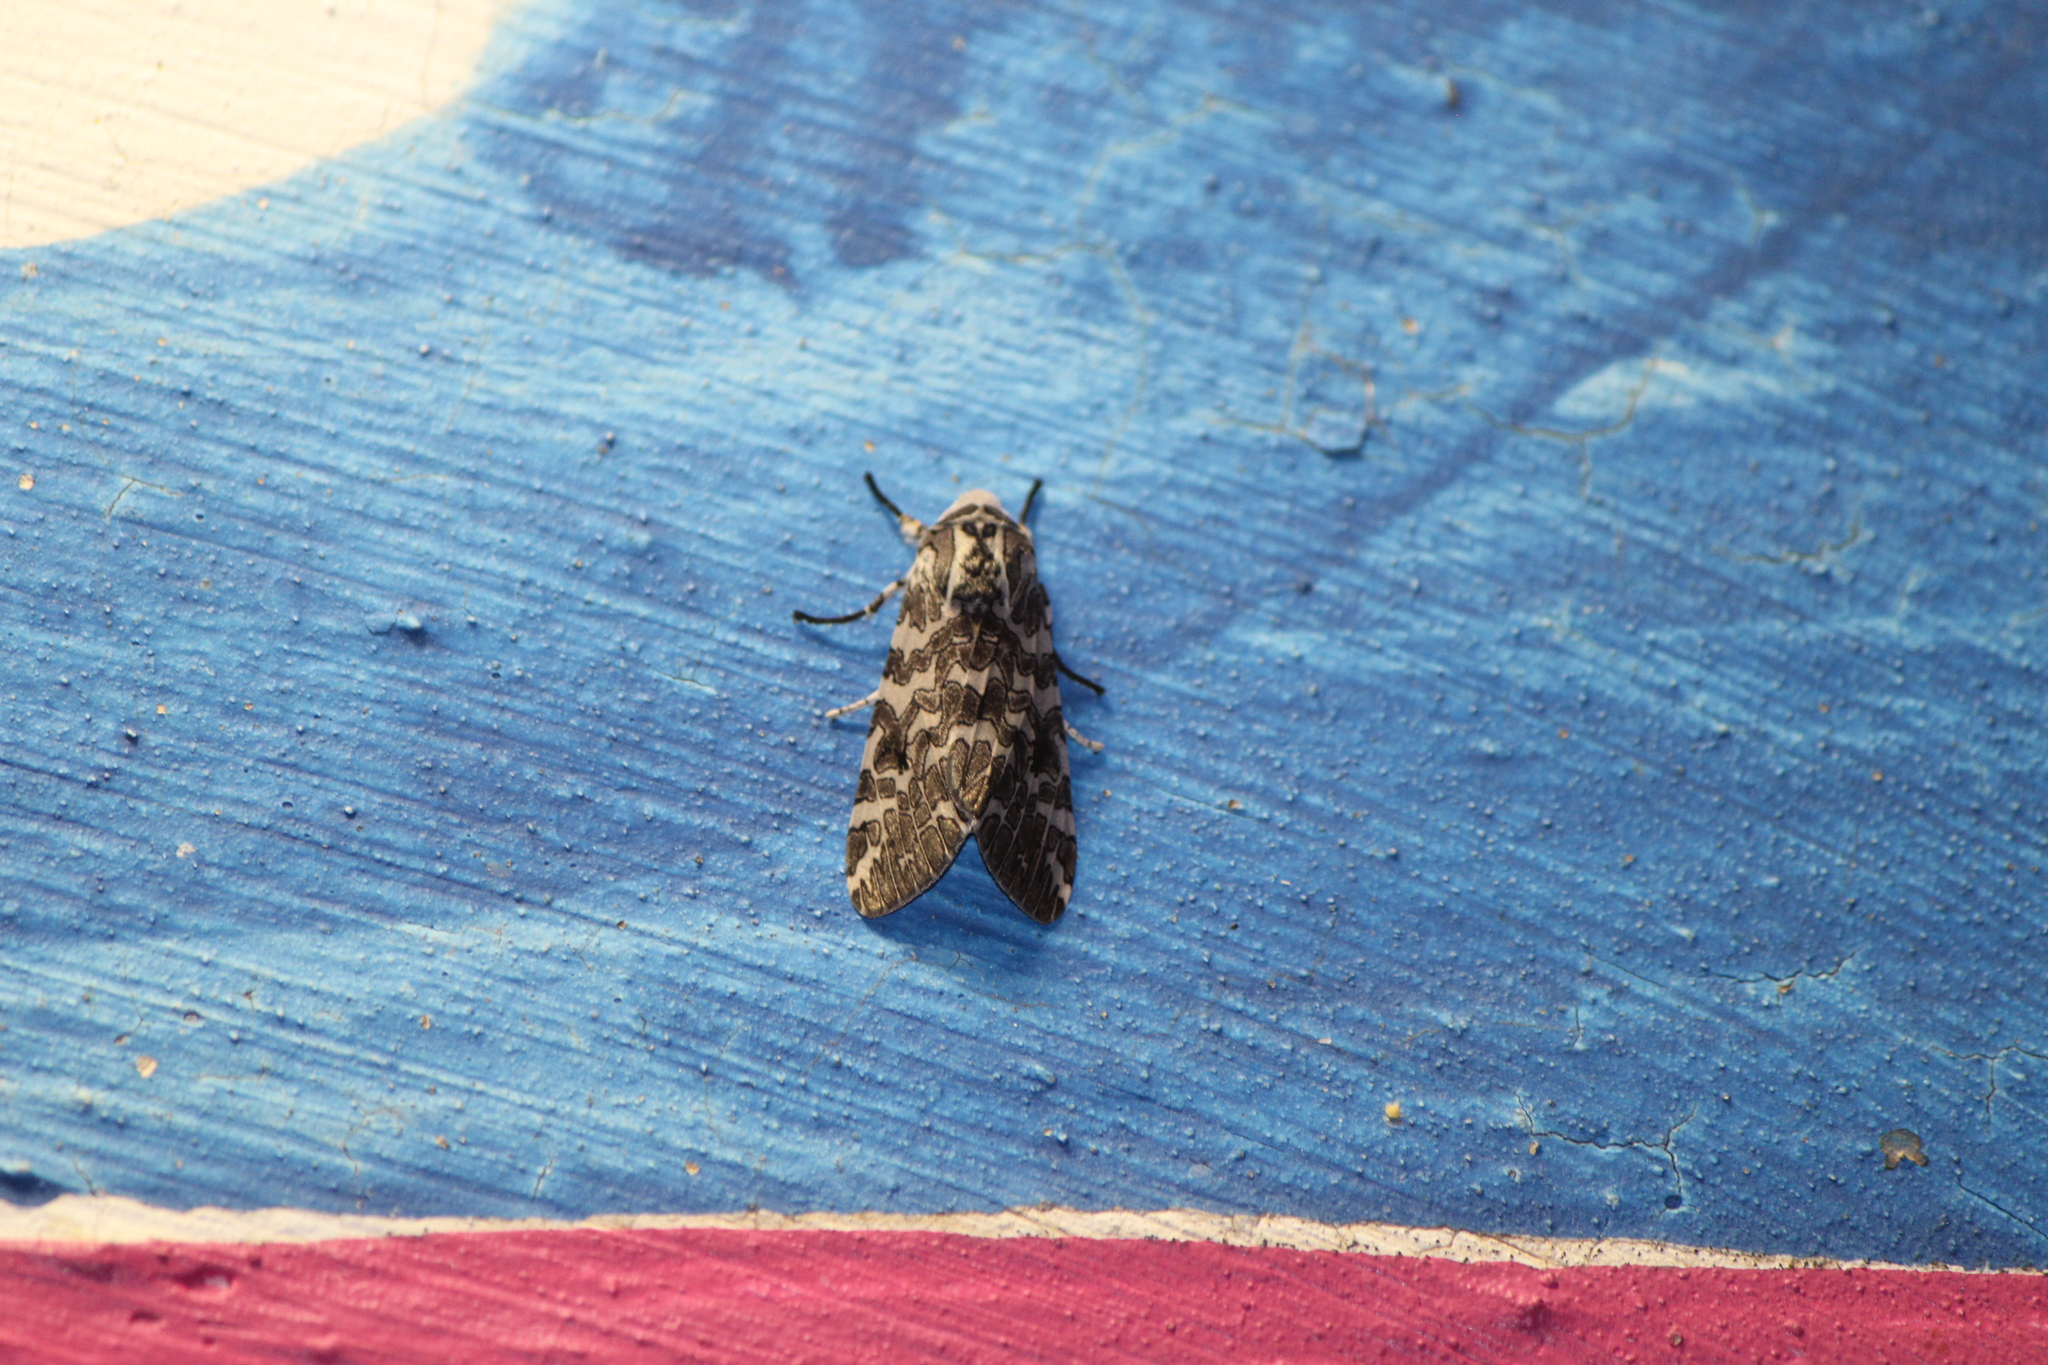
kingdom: Animalia
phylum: Arthropoda
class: Insecta
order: Lepidoptera
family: Erebidae
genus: Hypercompe
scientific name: Hypercompe suffusa
